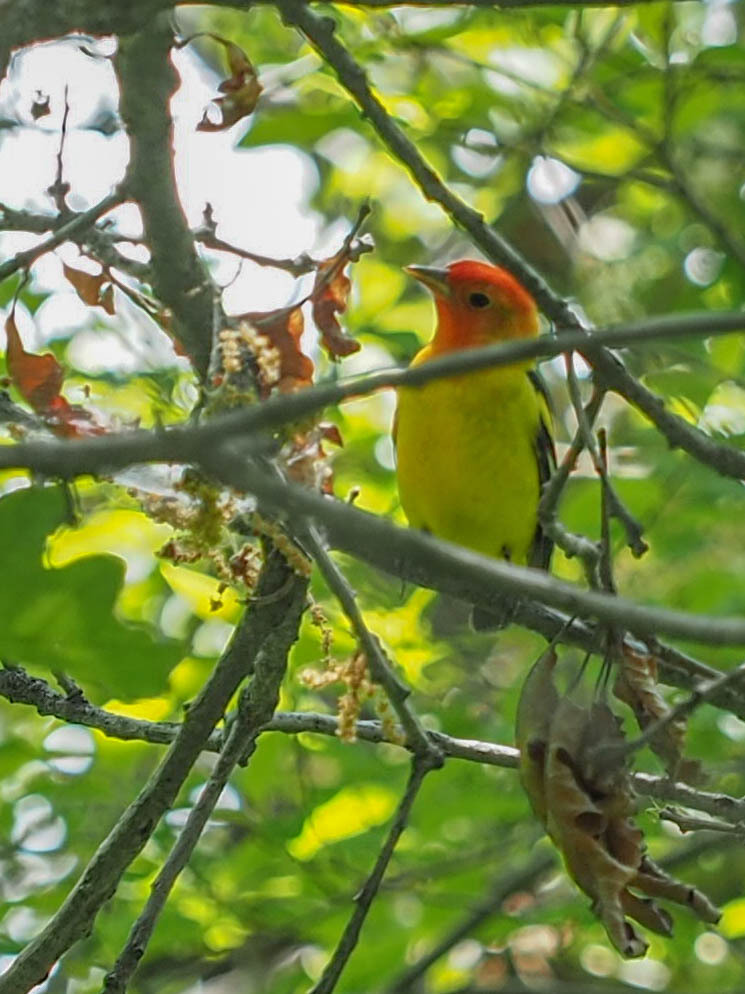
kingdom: Animalia
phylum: Chordata
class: Aves
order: Passeriformes
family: Cardinalidae
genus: Piranga
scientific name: Piranga ludoviciana
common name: Western tanager
